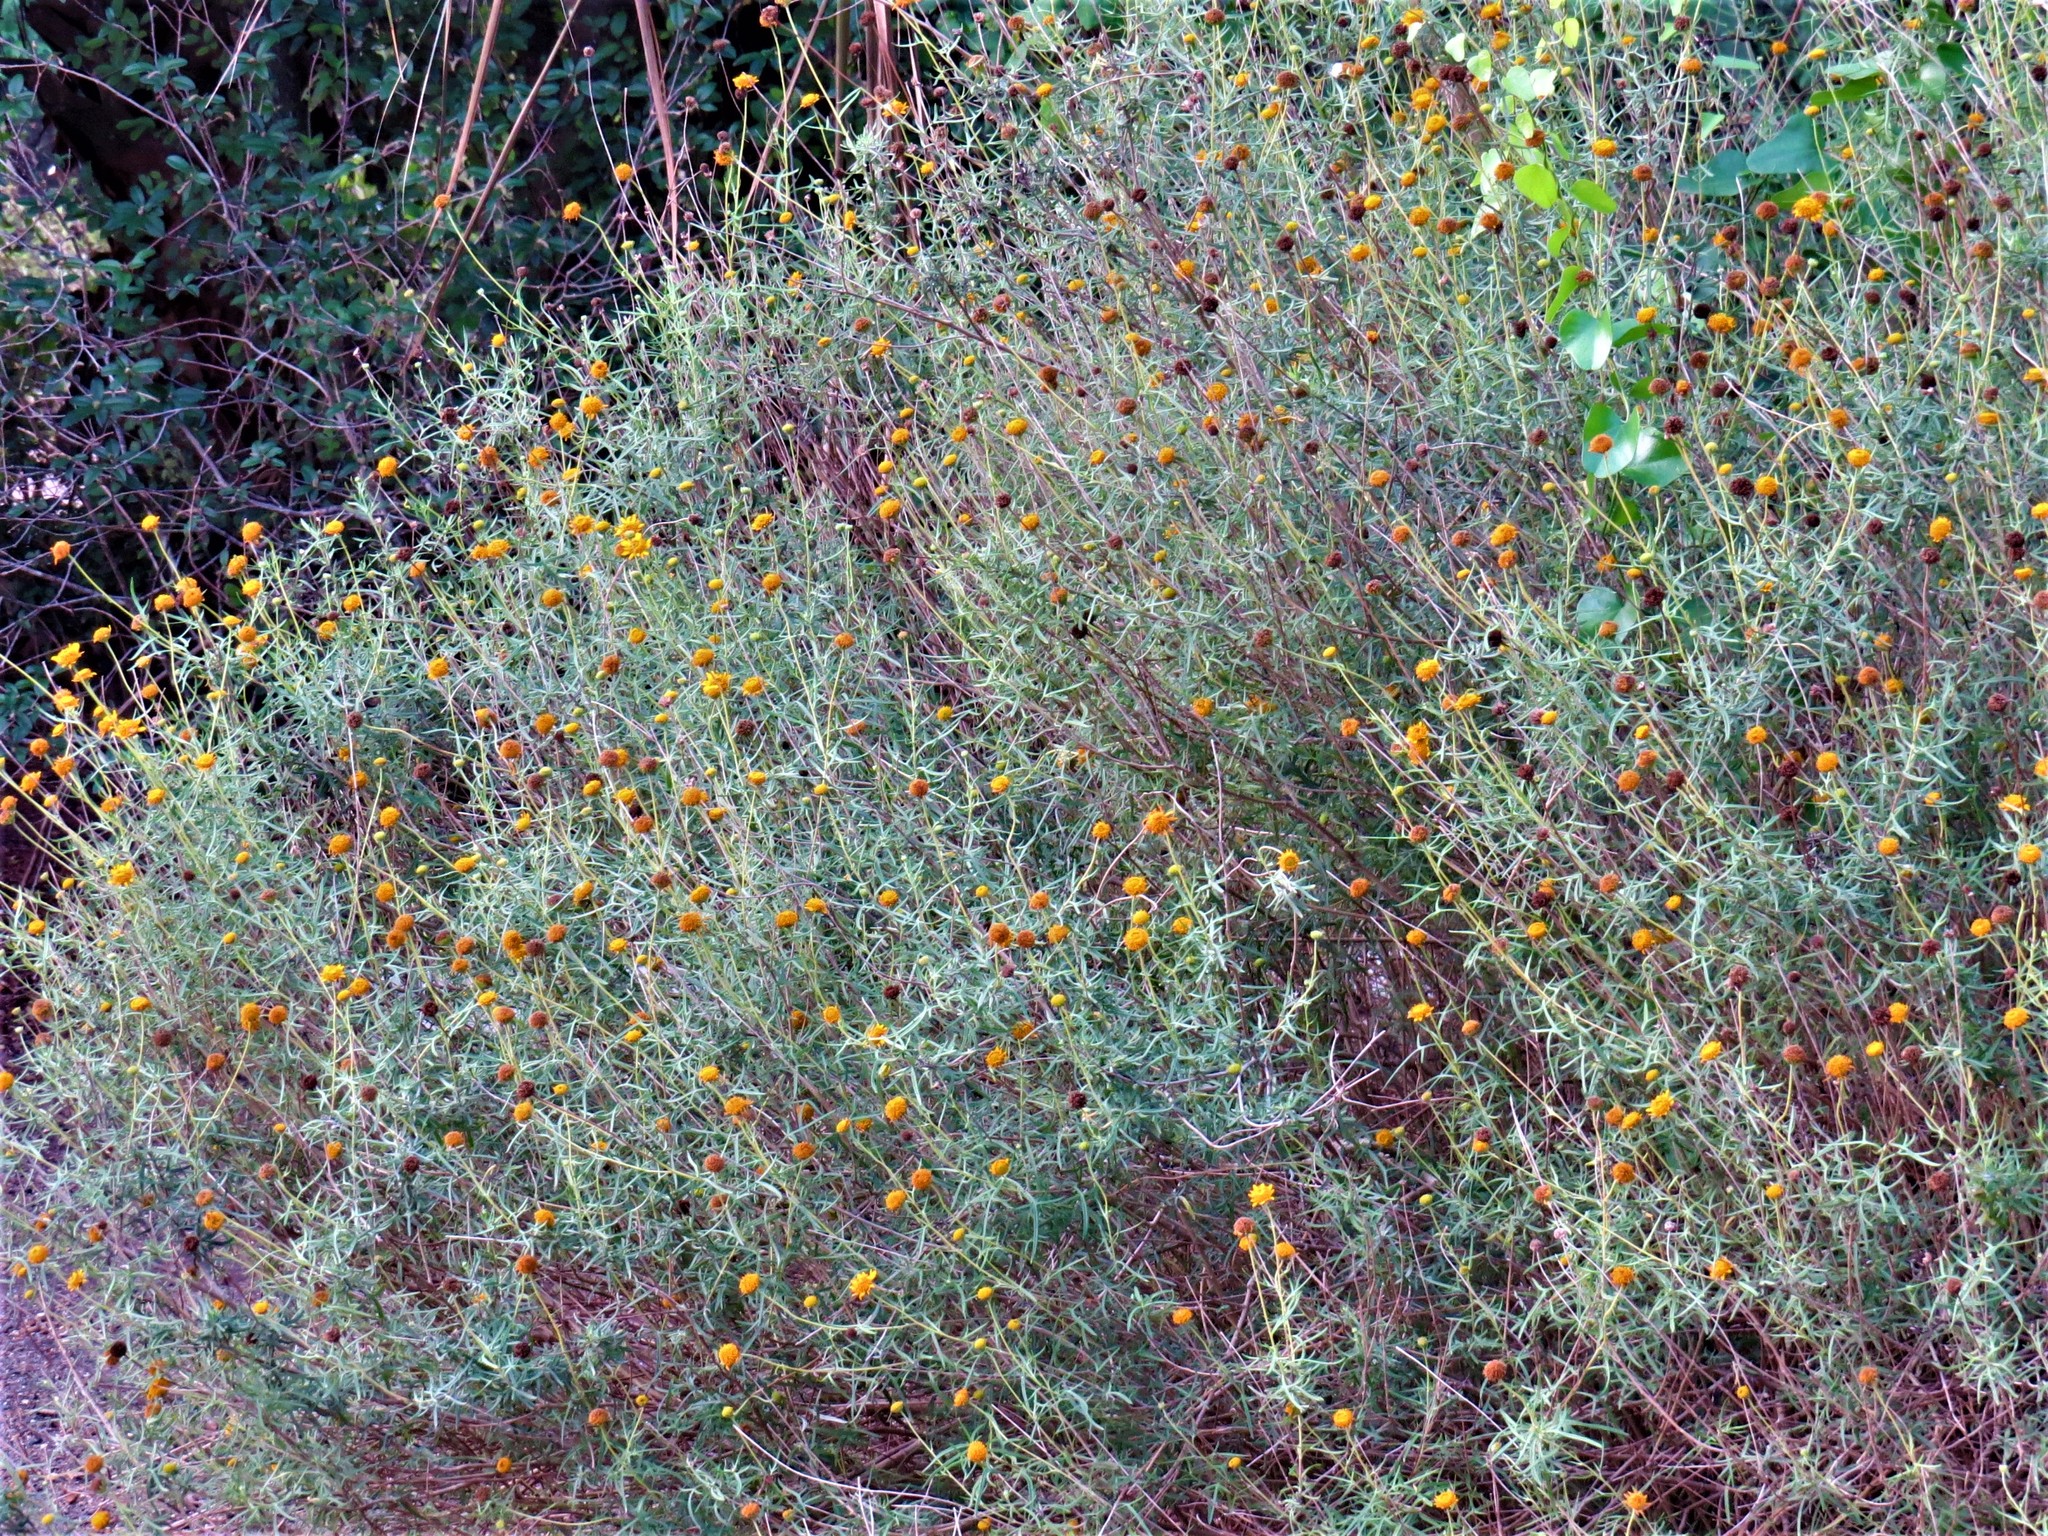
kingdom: Plantae
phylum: Tracheophyta
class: Magnoliopsida
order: Asterales
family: Asteraceae
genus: Sidneya
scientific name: Sidneya tenuifolia
